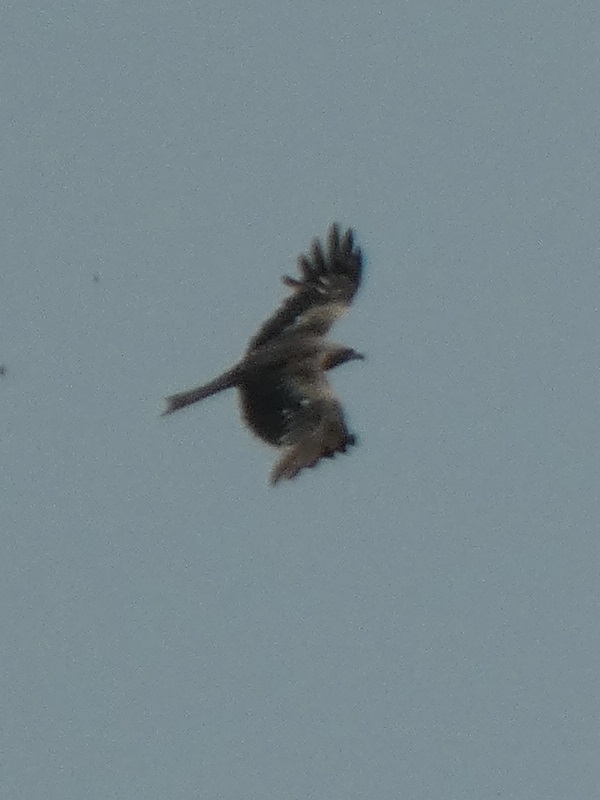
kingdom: Animalia
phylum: Chordata
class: Aves
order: Accipitriformes
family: Accipitridae
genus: Milvus
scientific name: Milvus migrans
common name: Black kite
